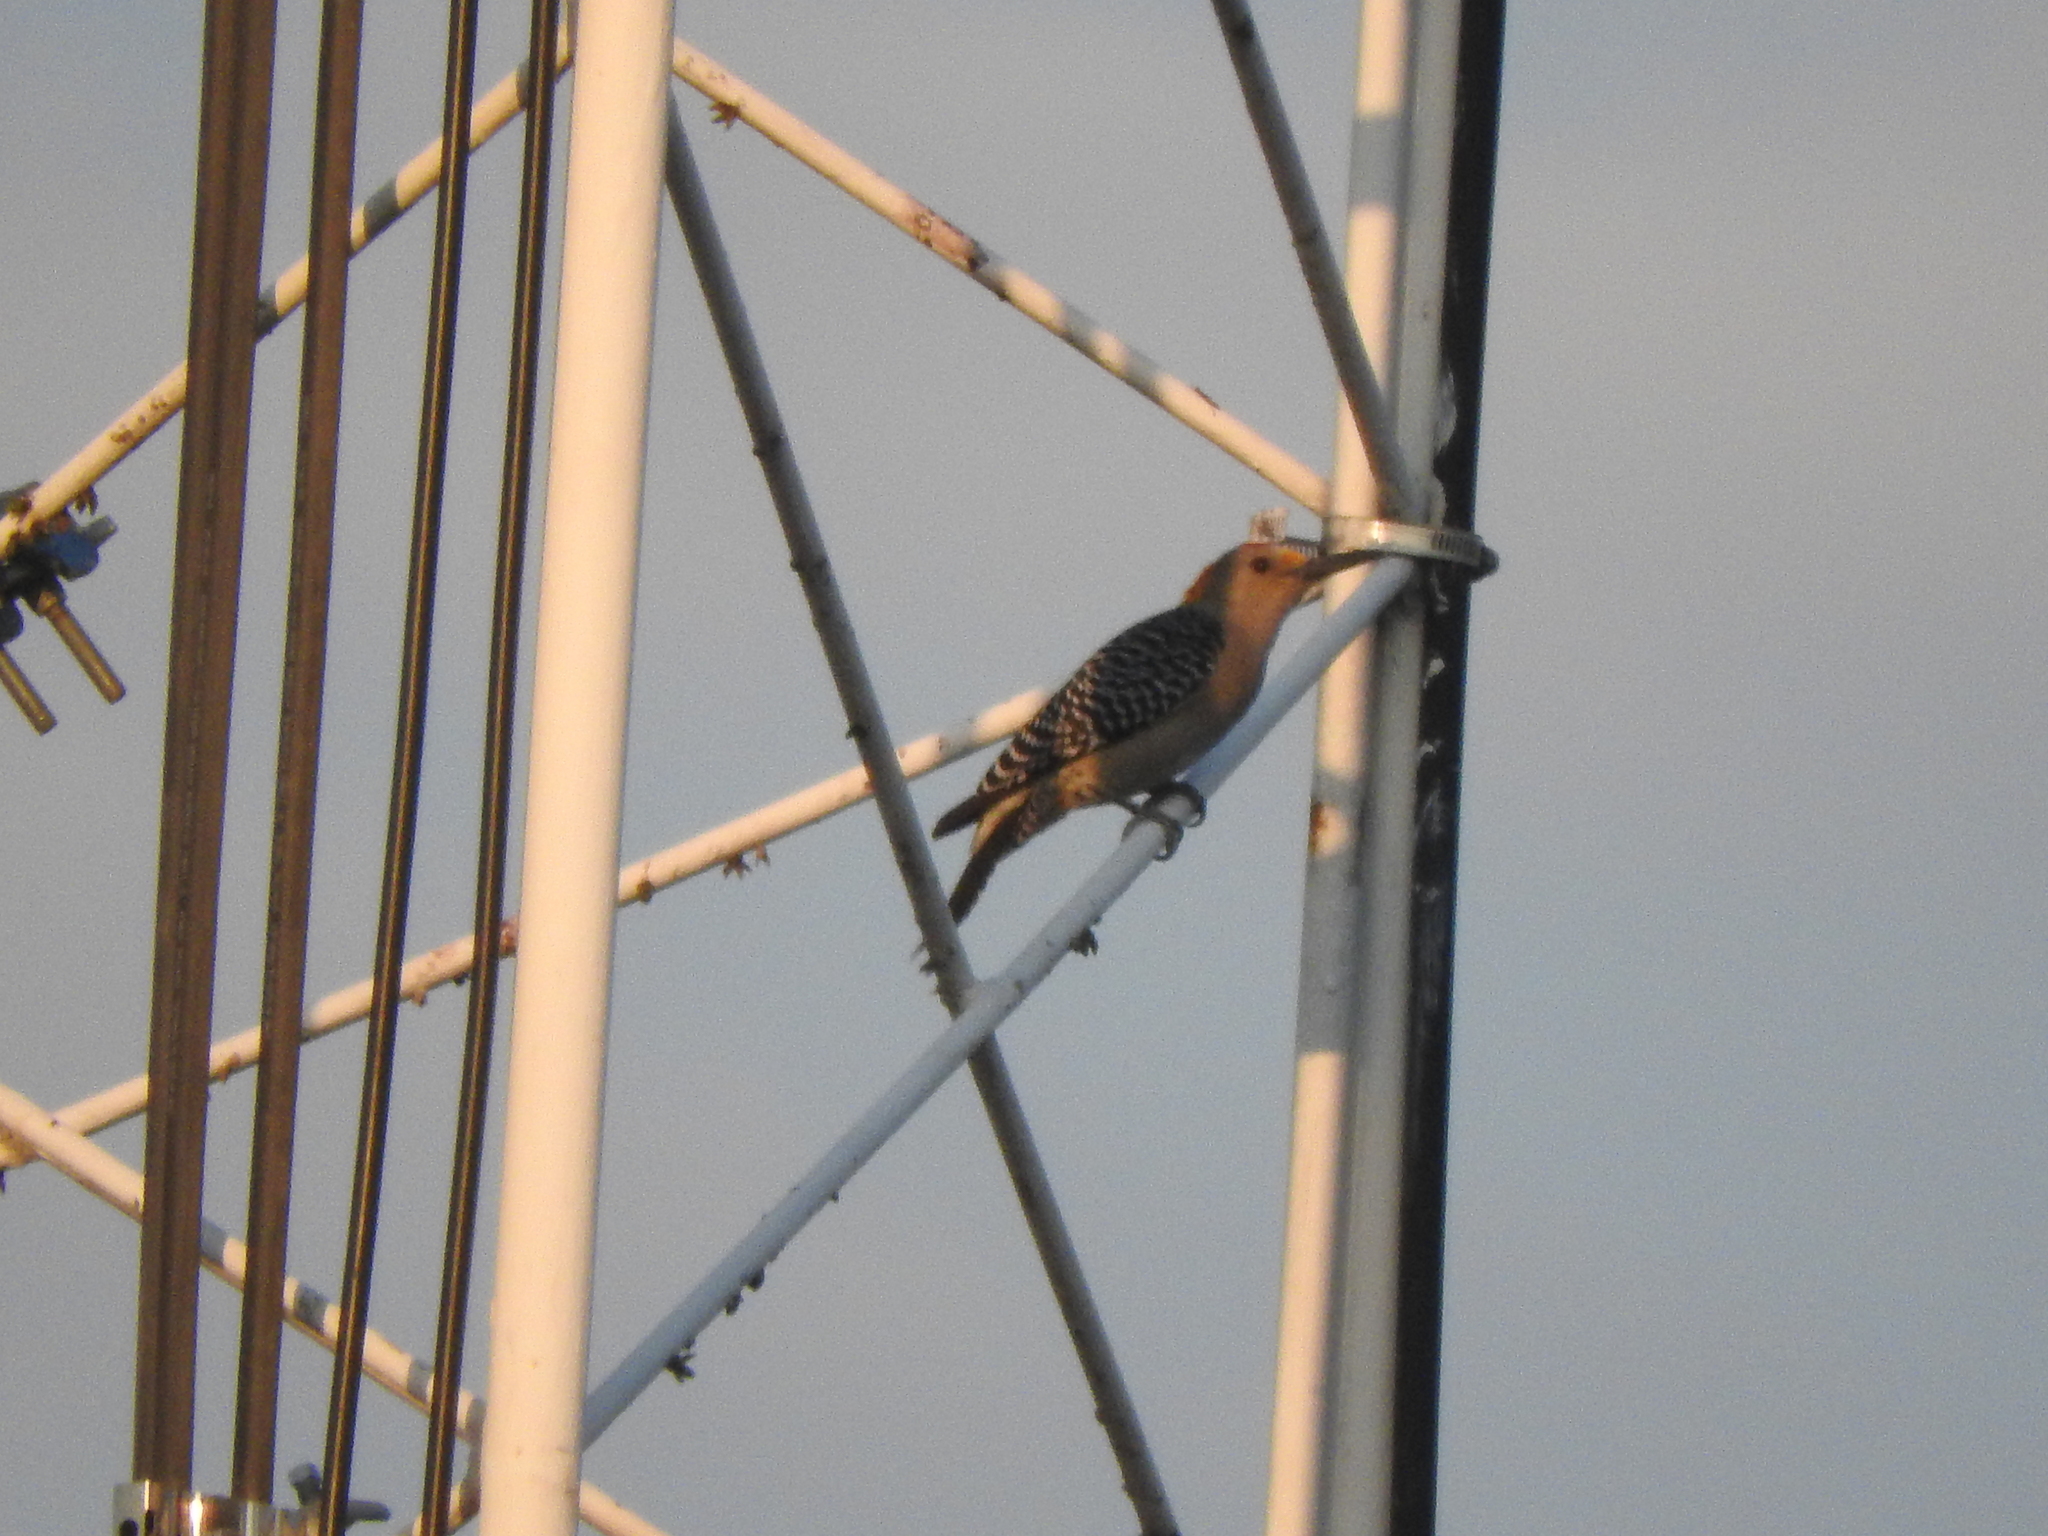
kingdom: Animalia
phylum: Chordata
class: Aves
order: Piciformes
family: Picidae
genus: Melanerpes
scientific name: Melanerpes aurifrons
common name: Golden-fronted woodpecker
